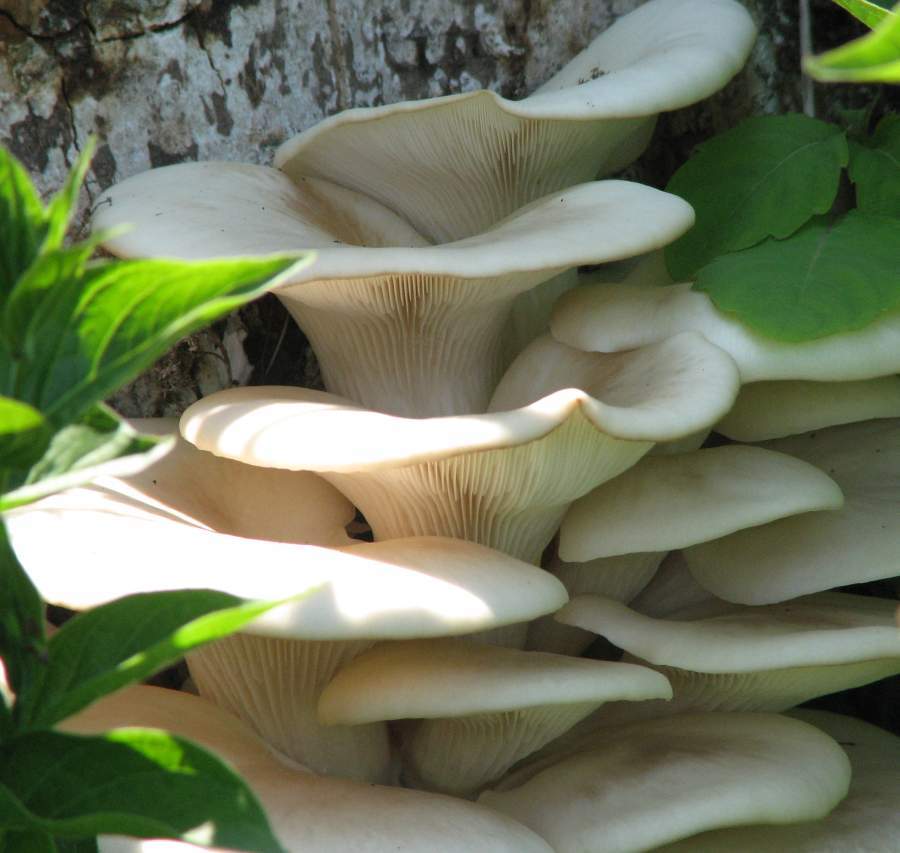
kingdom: Fungi
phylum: Basidiomycota
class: Agaricomycetes
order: Agaricales
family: Pleurotaceae
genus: Pleurotus
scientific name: Pleurotus ostreatus
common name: Oyster mushroom
